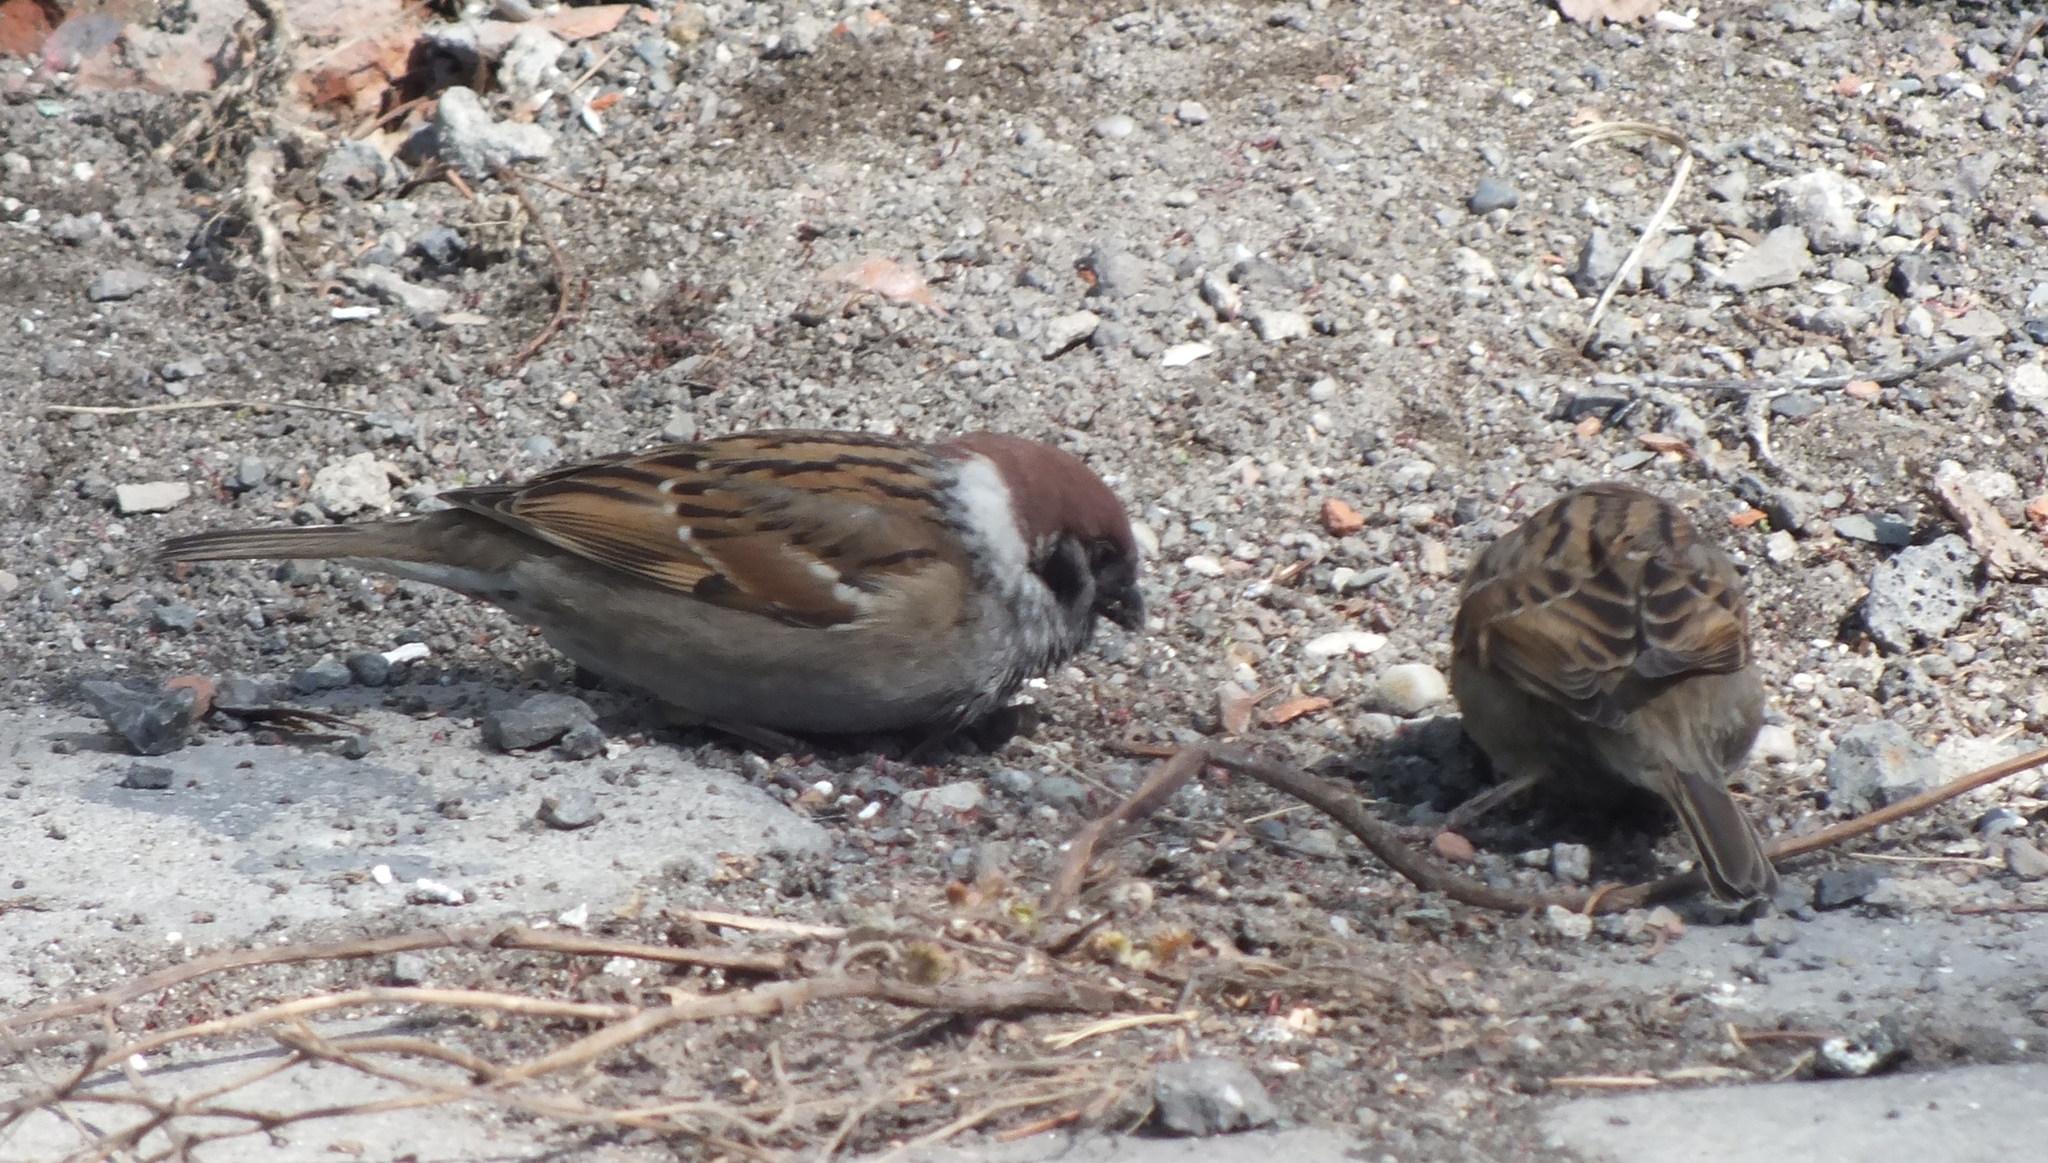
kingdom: Animalia
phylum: Chordata
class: Aves
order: Passeriformes
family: Passeridae
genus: Passer
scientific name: Passer montanus
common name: Eurasian tree sparrow
